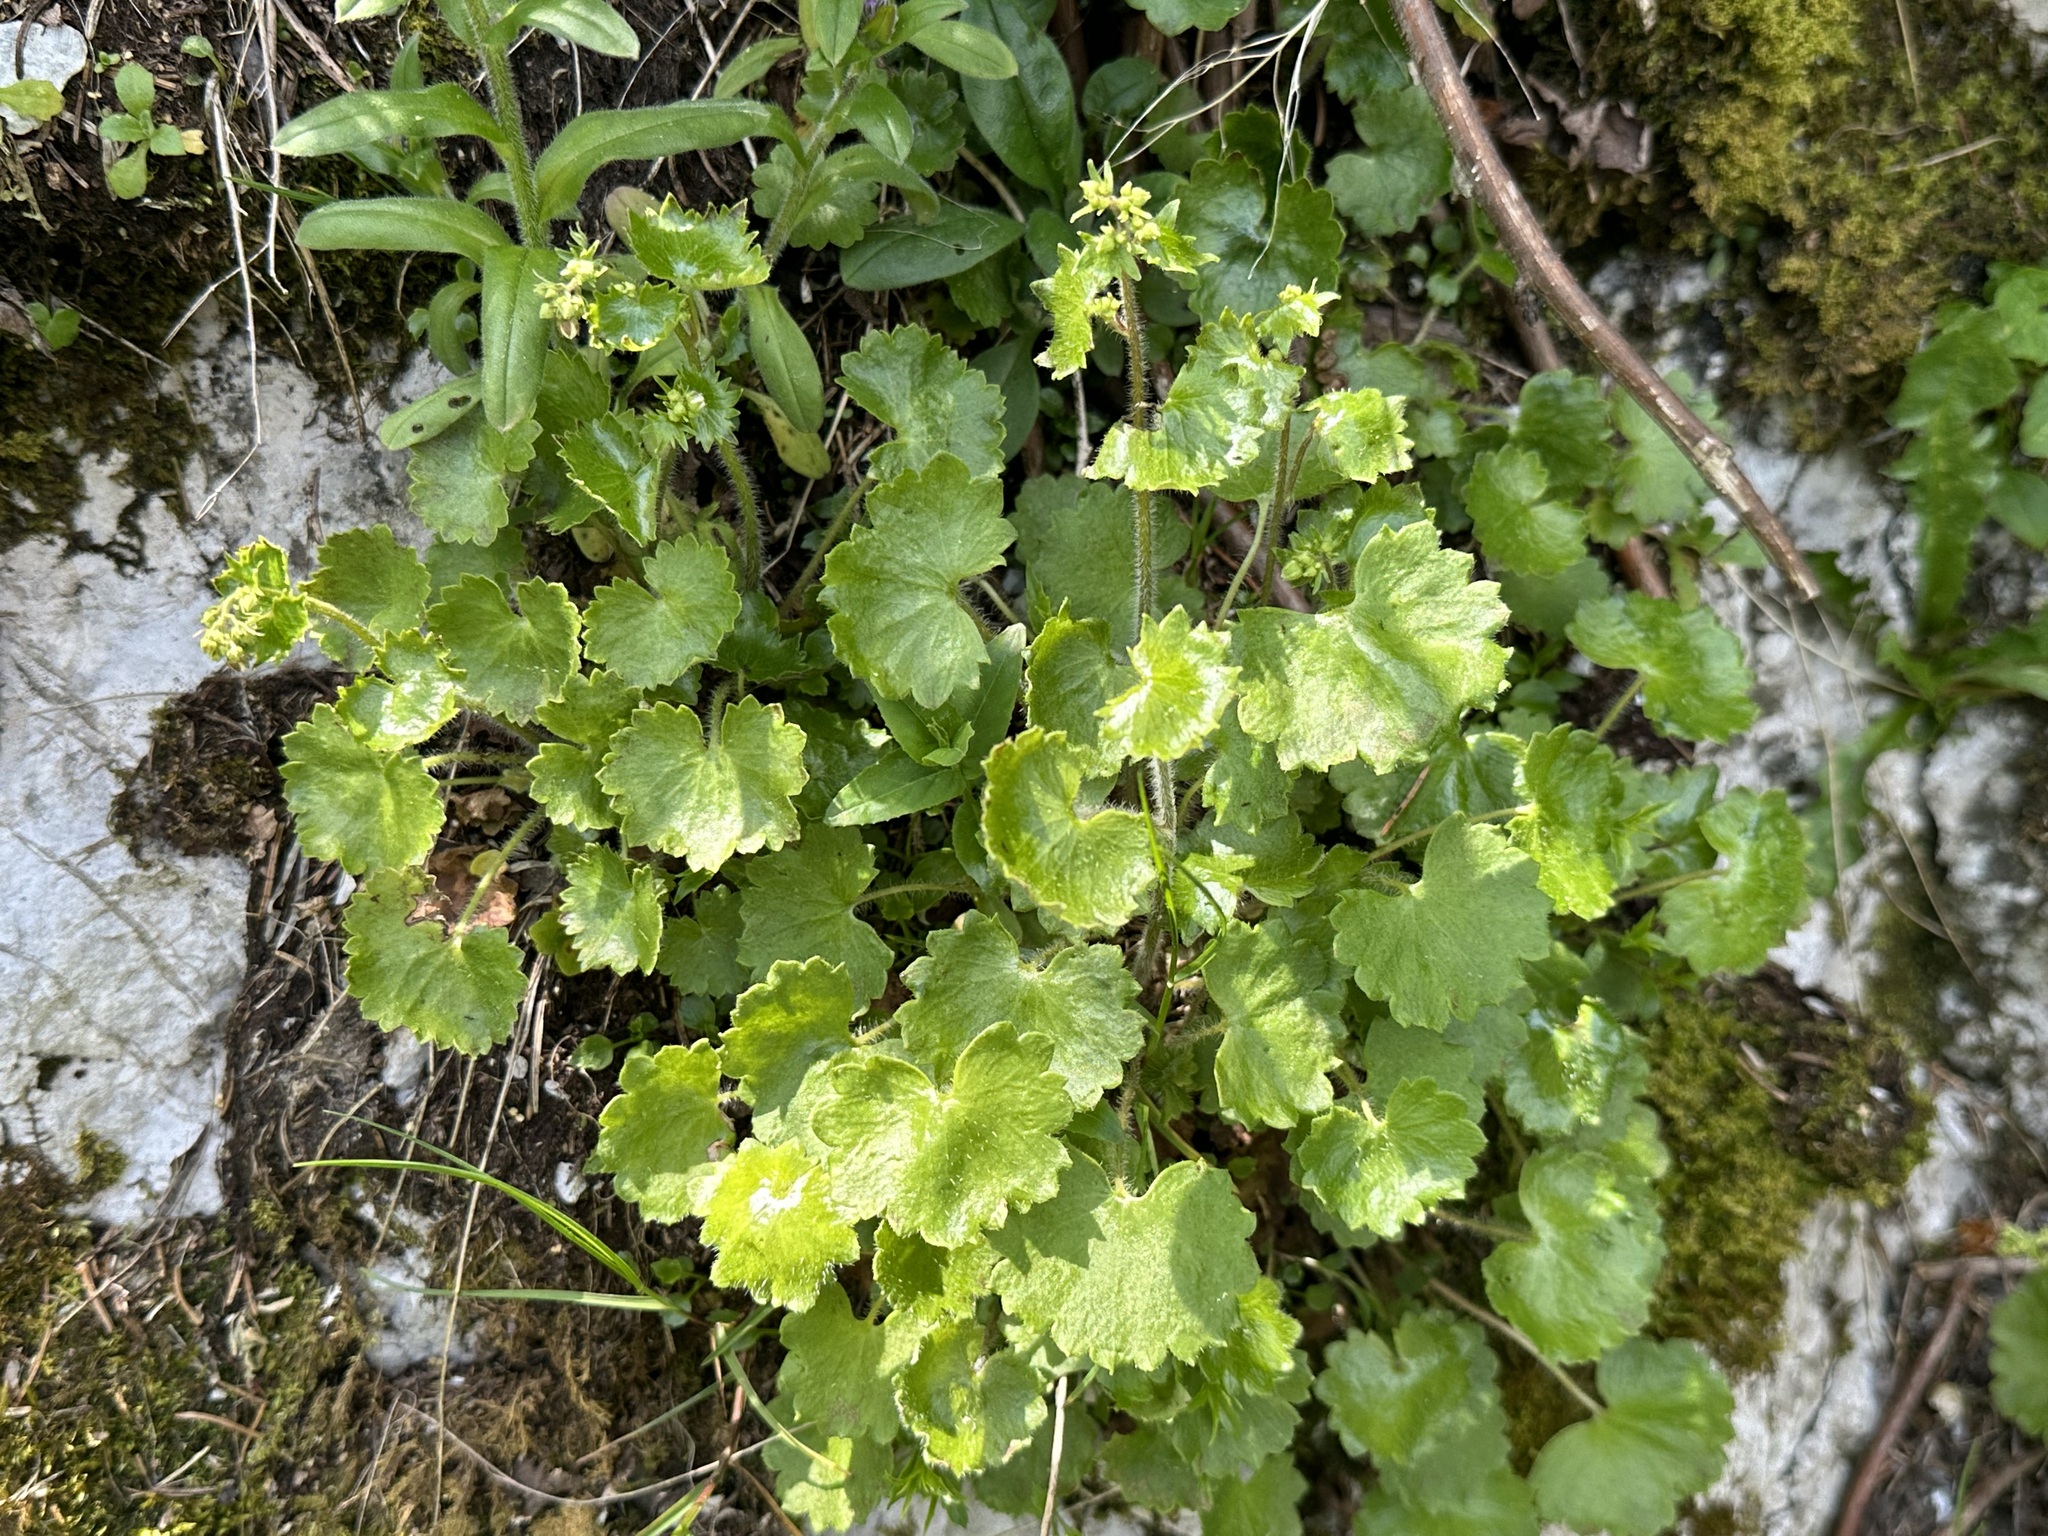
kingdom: Plantae
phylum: Tracheophyta
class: Magnoliopsida
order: Saxifragales
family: Saxifragaceae
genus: Saxifraga
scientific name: Saxifraga rotundifolia
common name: Round-leaved saxifrage
